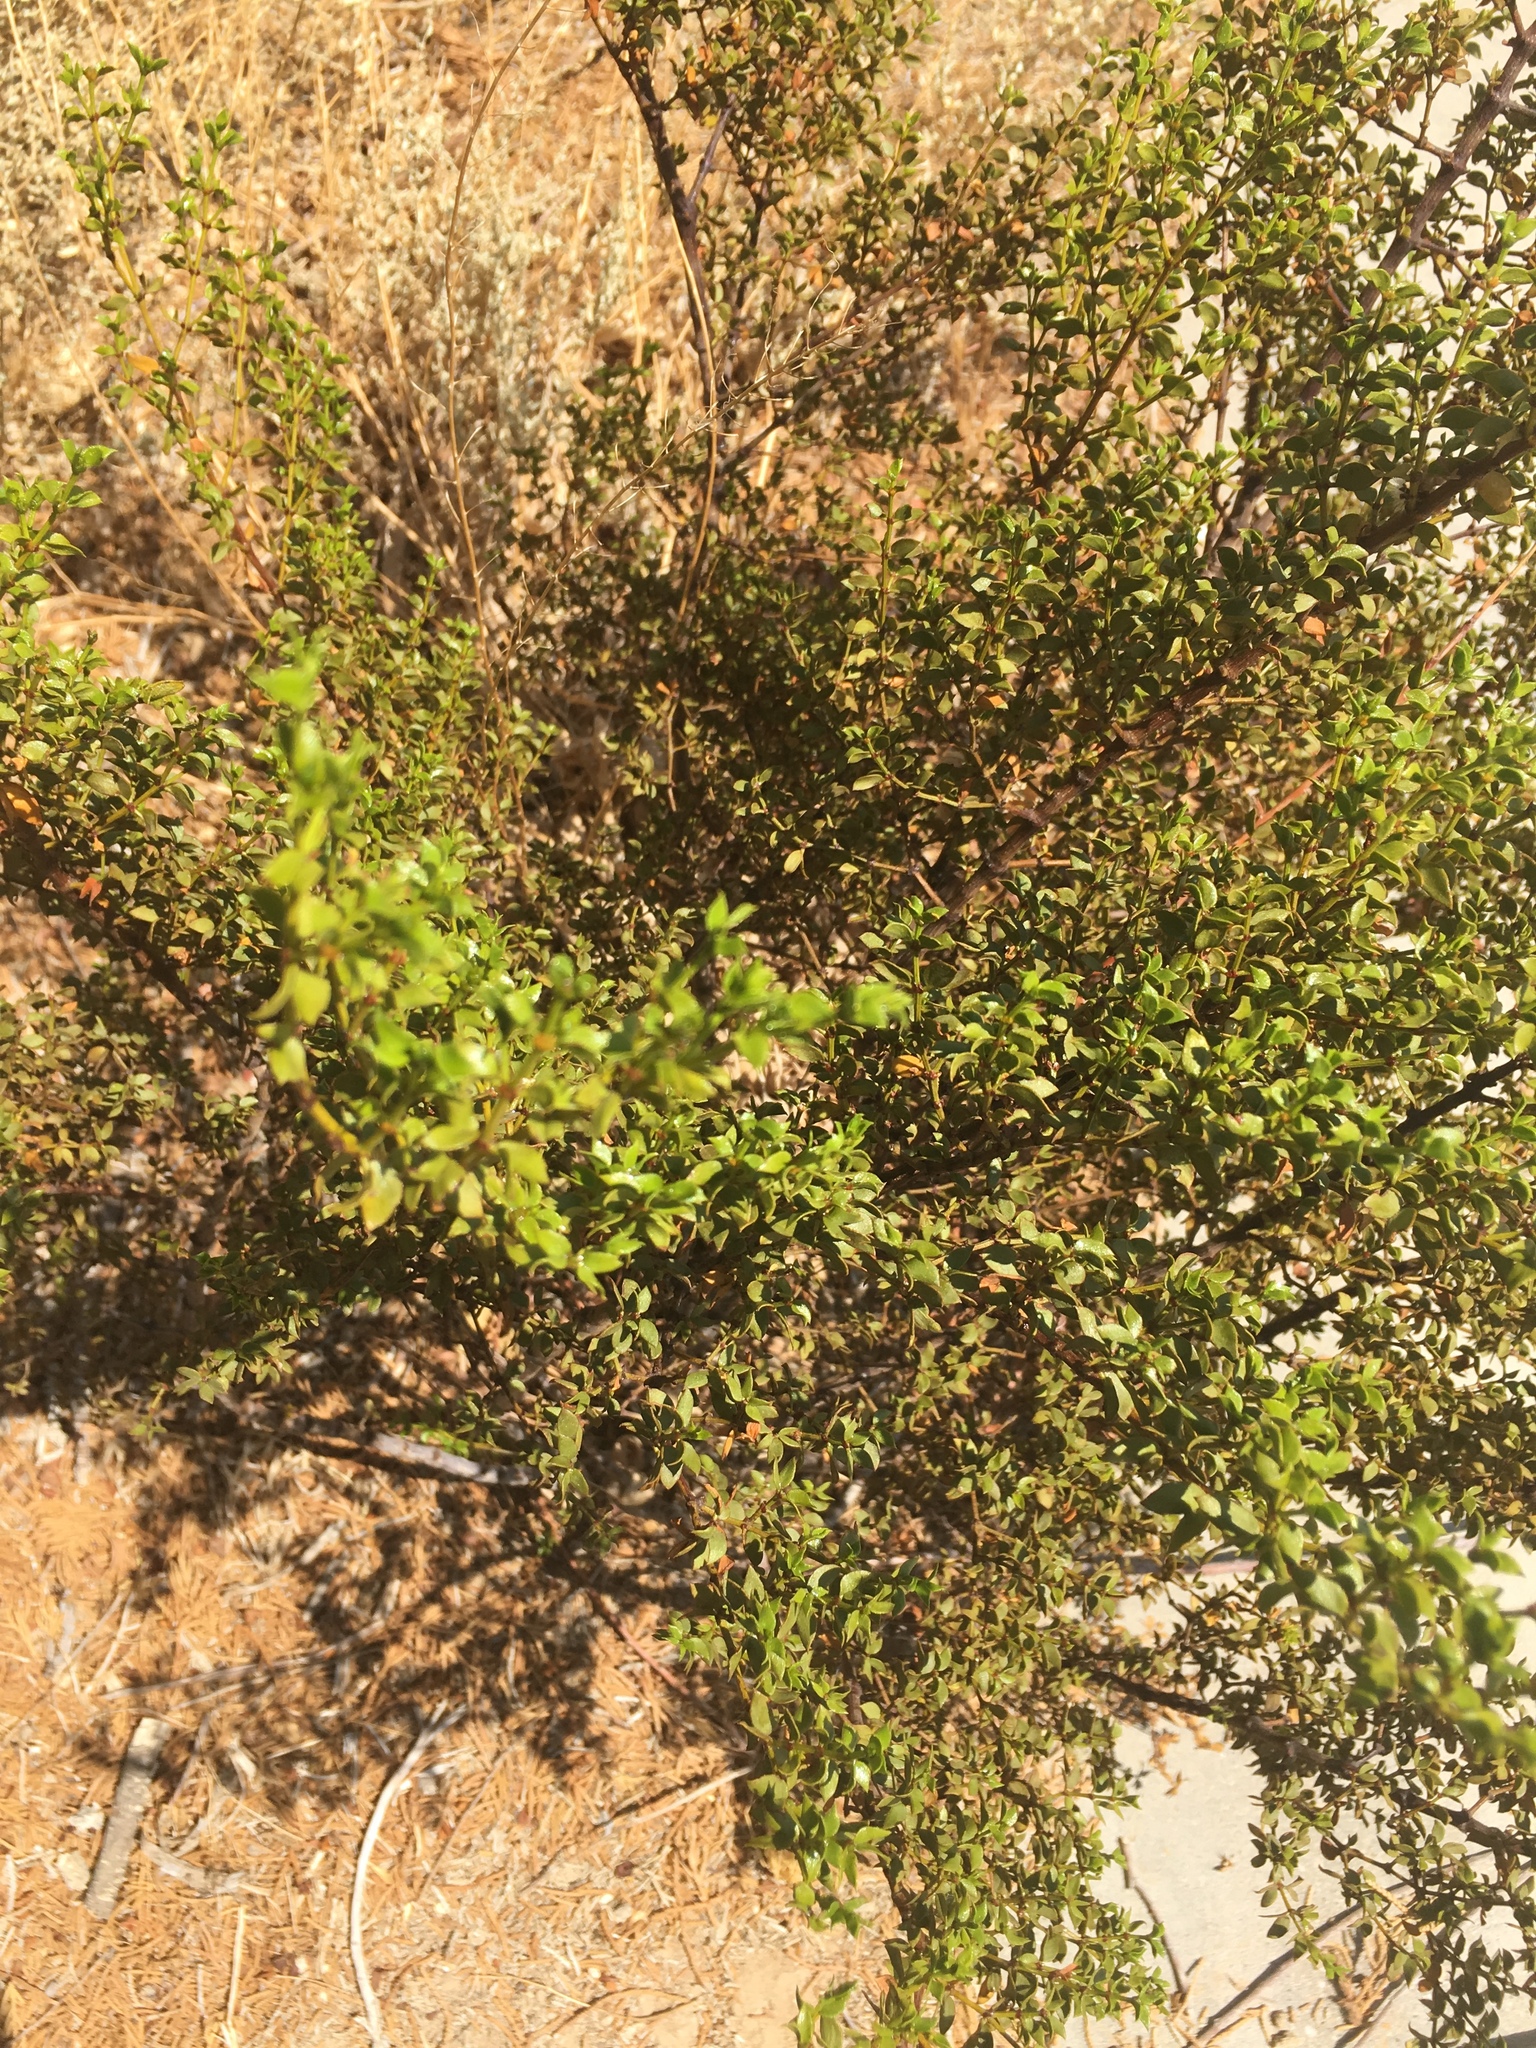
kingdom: Plantae
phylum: Tracheophyta
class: Magnoliopsida
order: Zygophyllales
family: Zygophyllaceae
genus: Larrea
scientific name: Larrea tridentata
